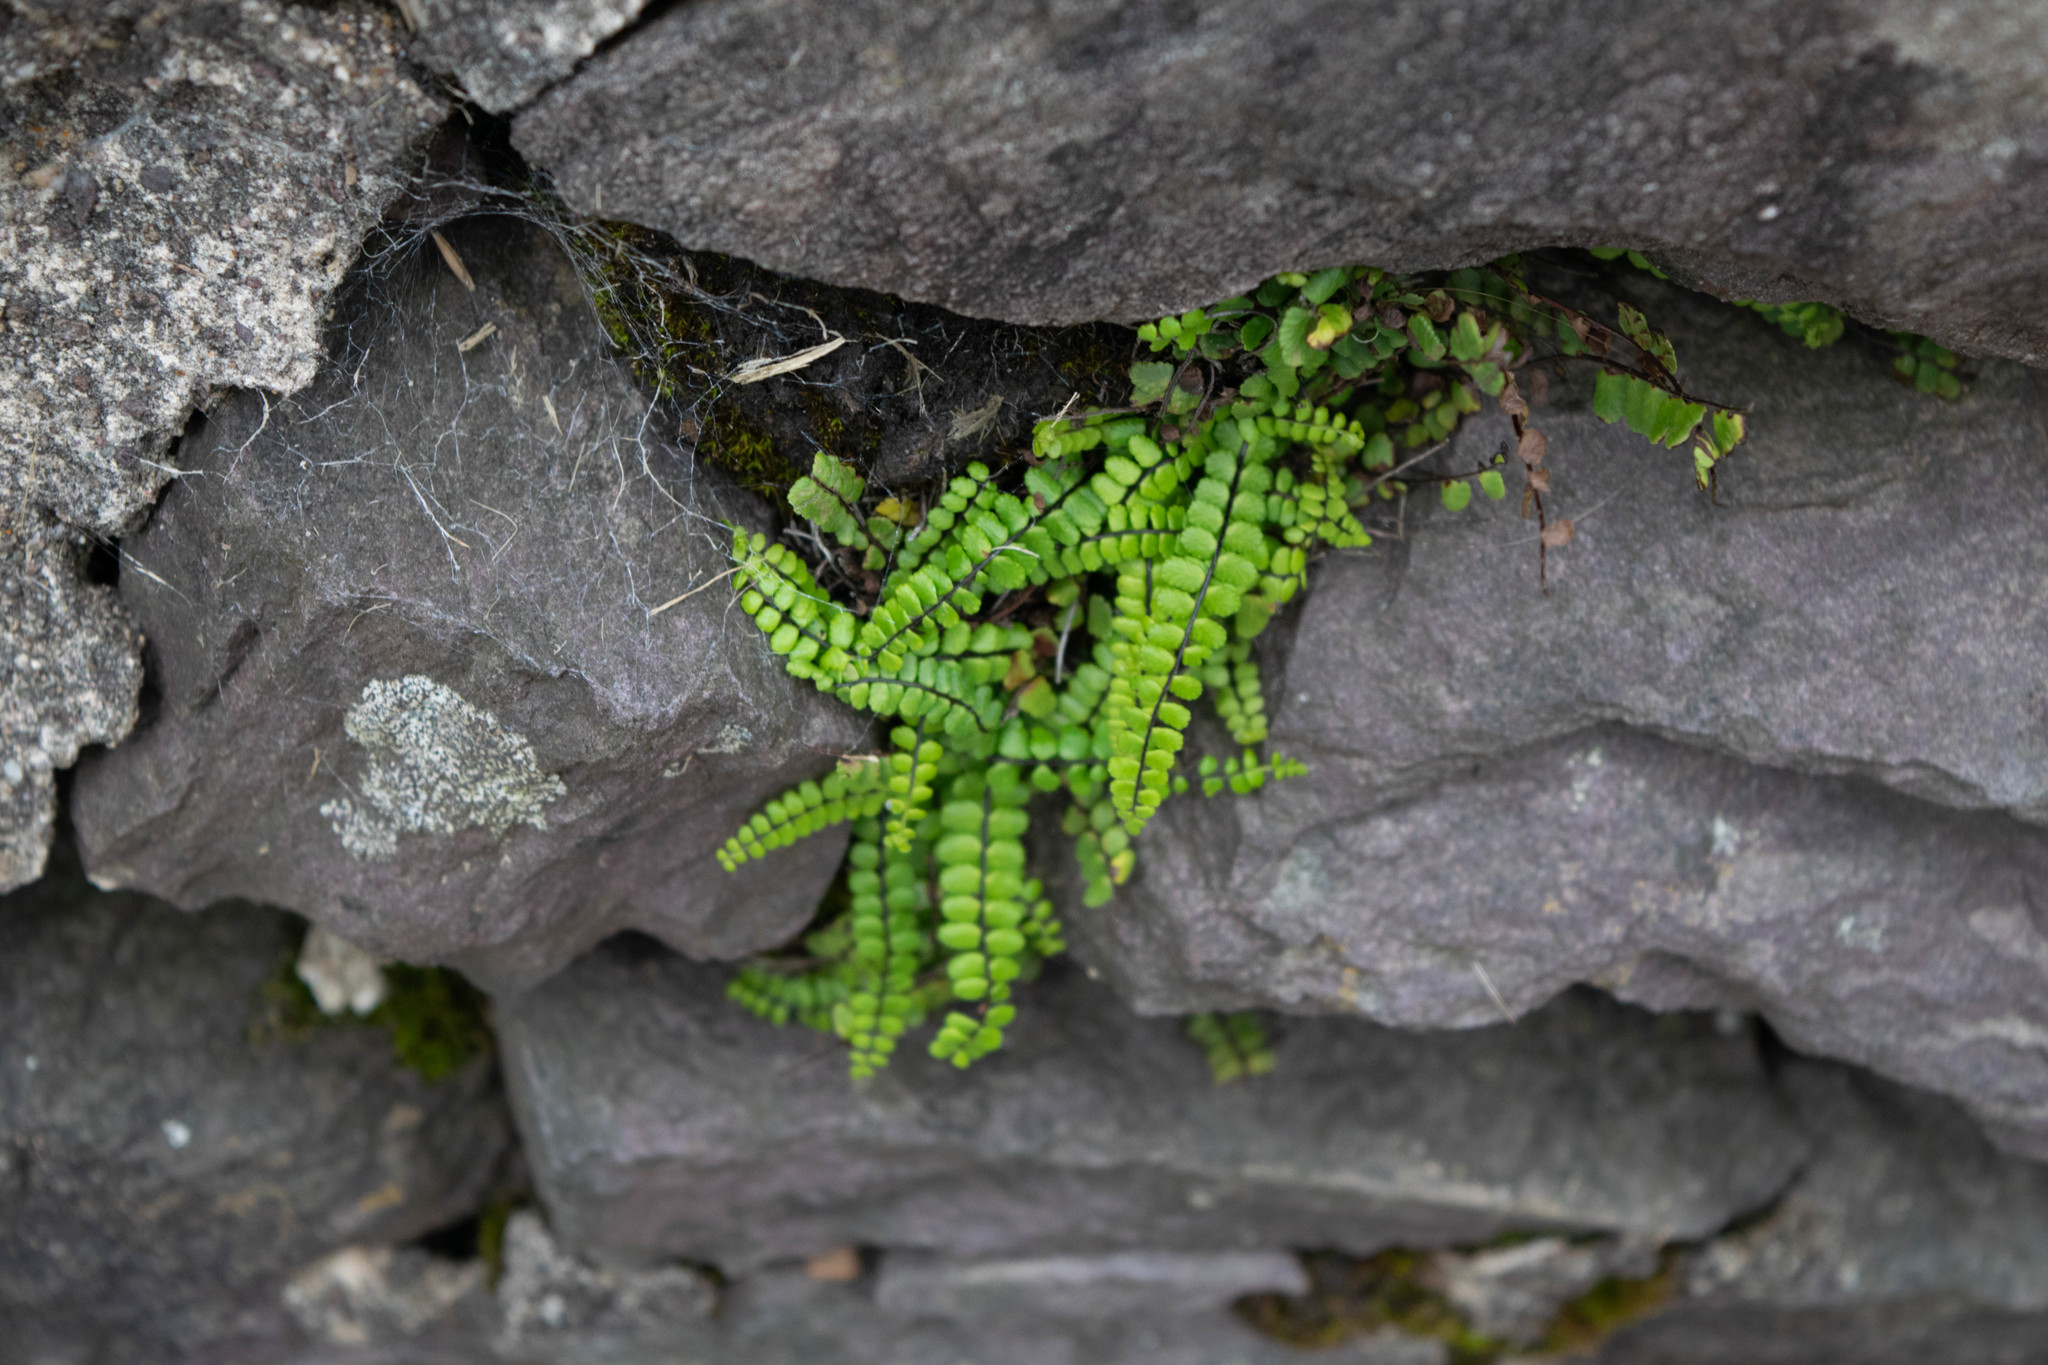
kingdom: Plantae
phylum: Tracheophyta
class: Polypodiopsida
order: Polypodiales
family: Aspleniaceae
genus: Asplenium
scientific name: Asplenium trichomanes
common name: Maidenhair spleenwort
